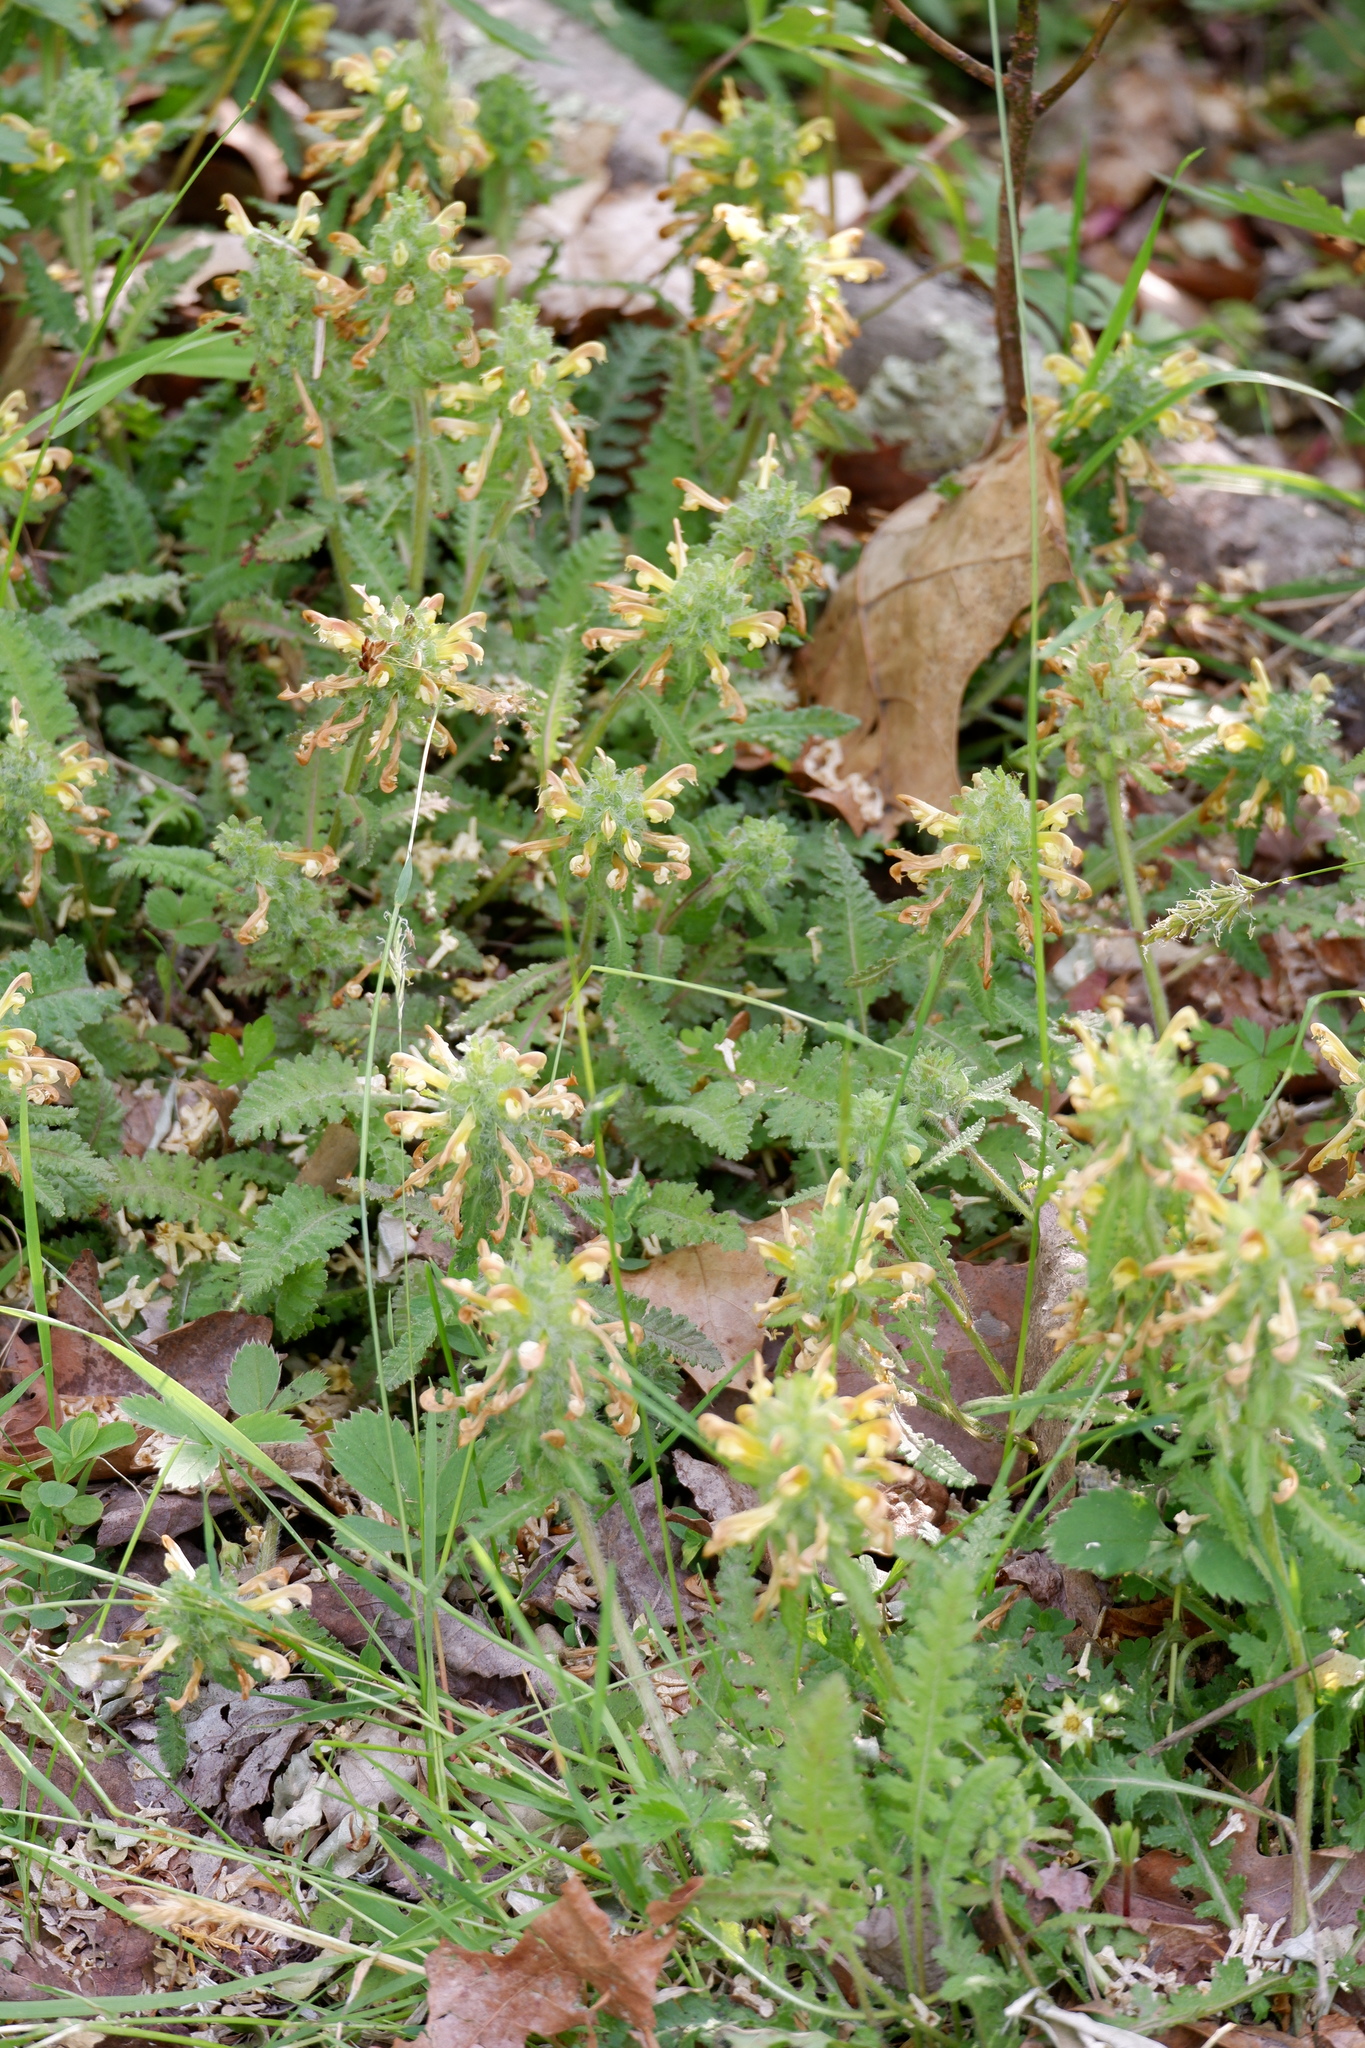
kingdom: Plantae
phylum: Tracheophyta
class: Magnoliopsida
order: Lamiales
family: Orobanchaceae
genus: Pedicularis
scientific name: Pedicularis canadensis
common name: Early lousewort
